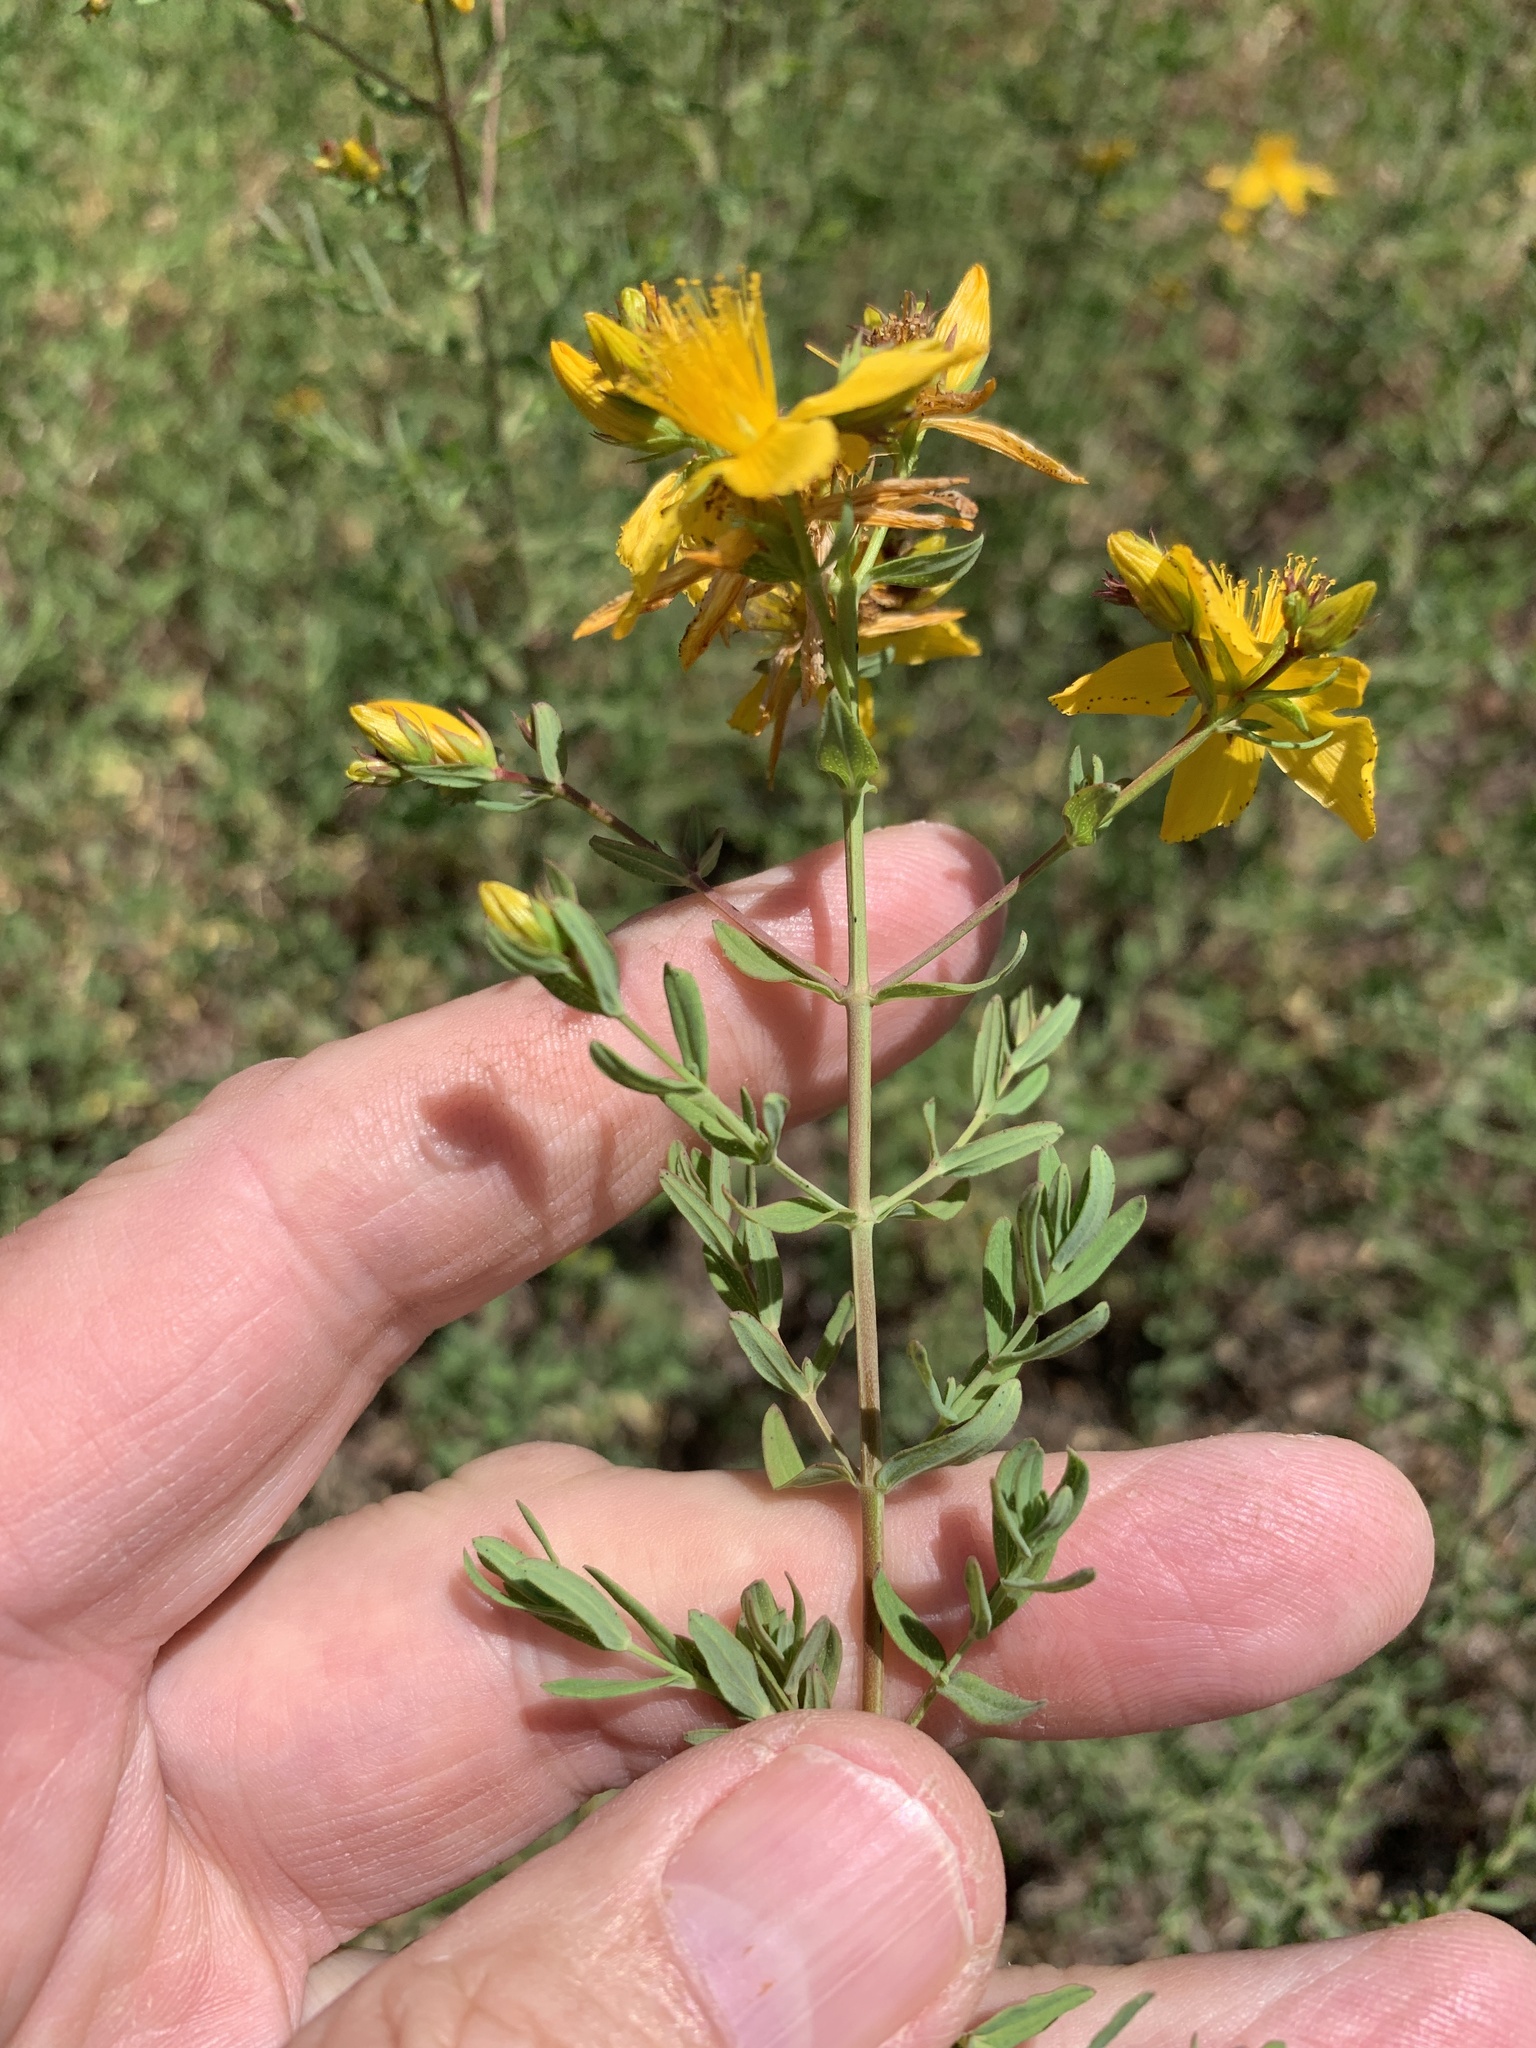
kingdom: Plantae
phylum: Tracheophyta
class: Magnoliopsida
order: Malpighiales
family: Hypericaceae
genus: Hypericum
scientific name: Hypericum perforatum
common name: Common st. johnswort
